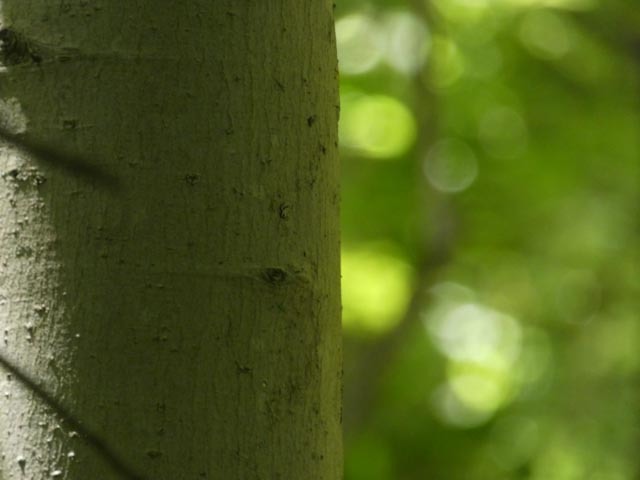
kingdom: Plantae
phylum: Tracheophyta
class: Magnoliopsida
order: Sapindales
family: Sapindaceae
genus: Acer
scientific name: Acer rubrum
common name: Red maple
